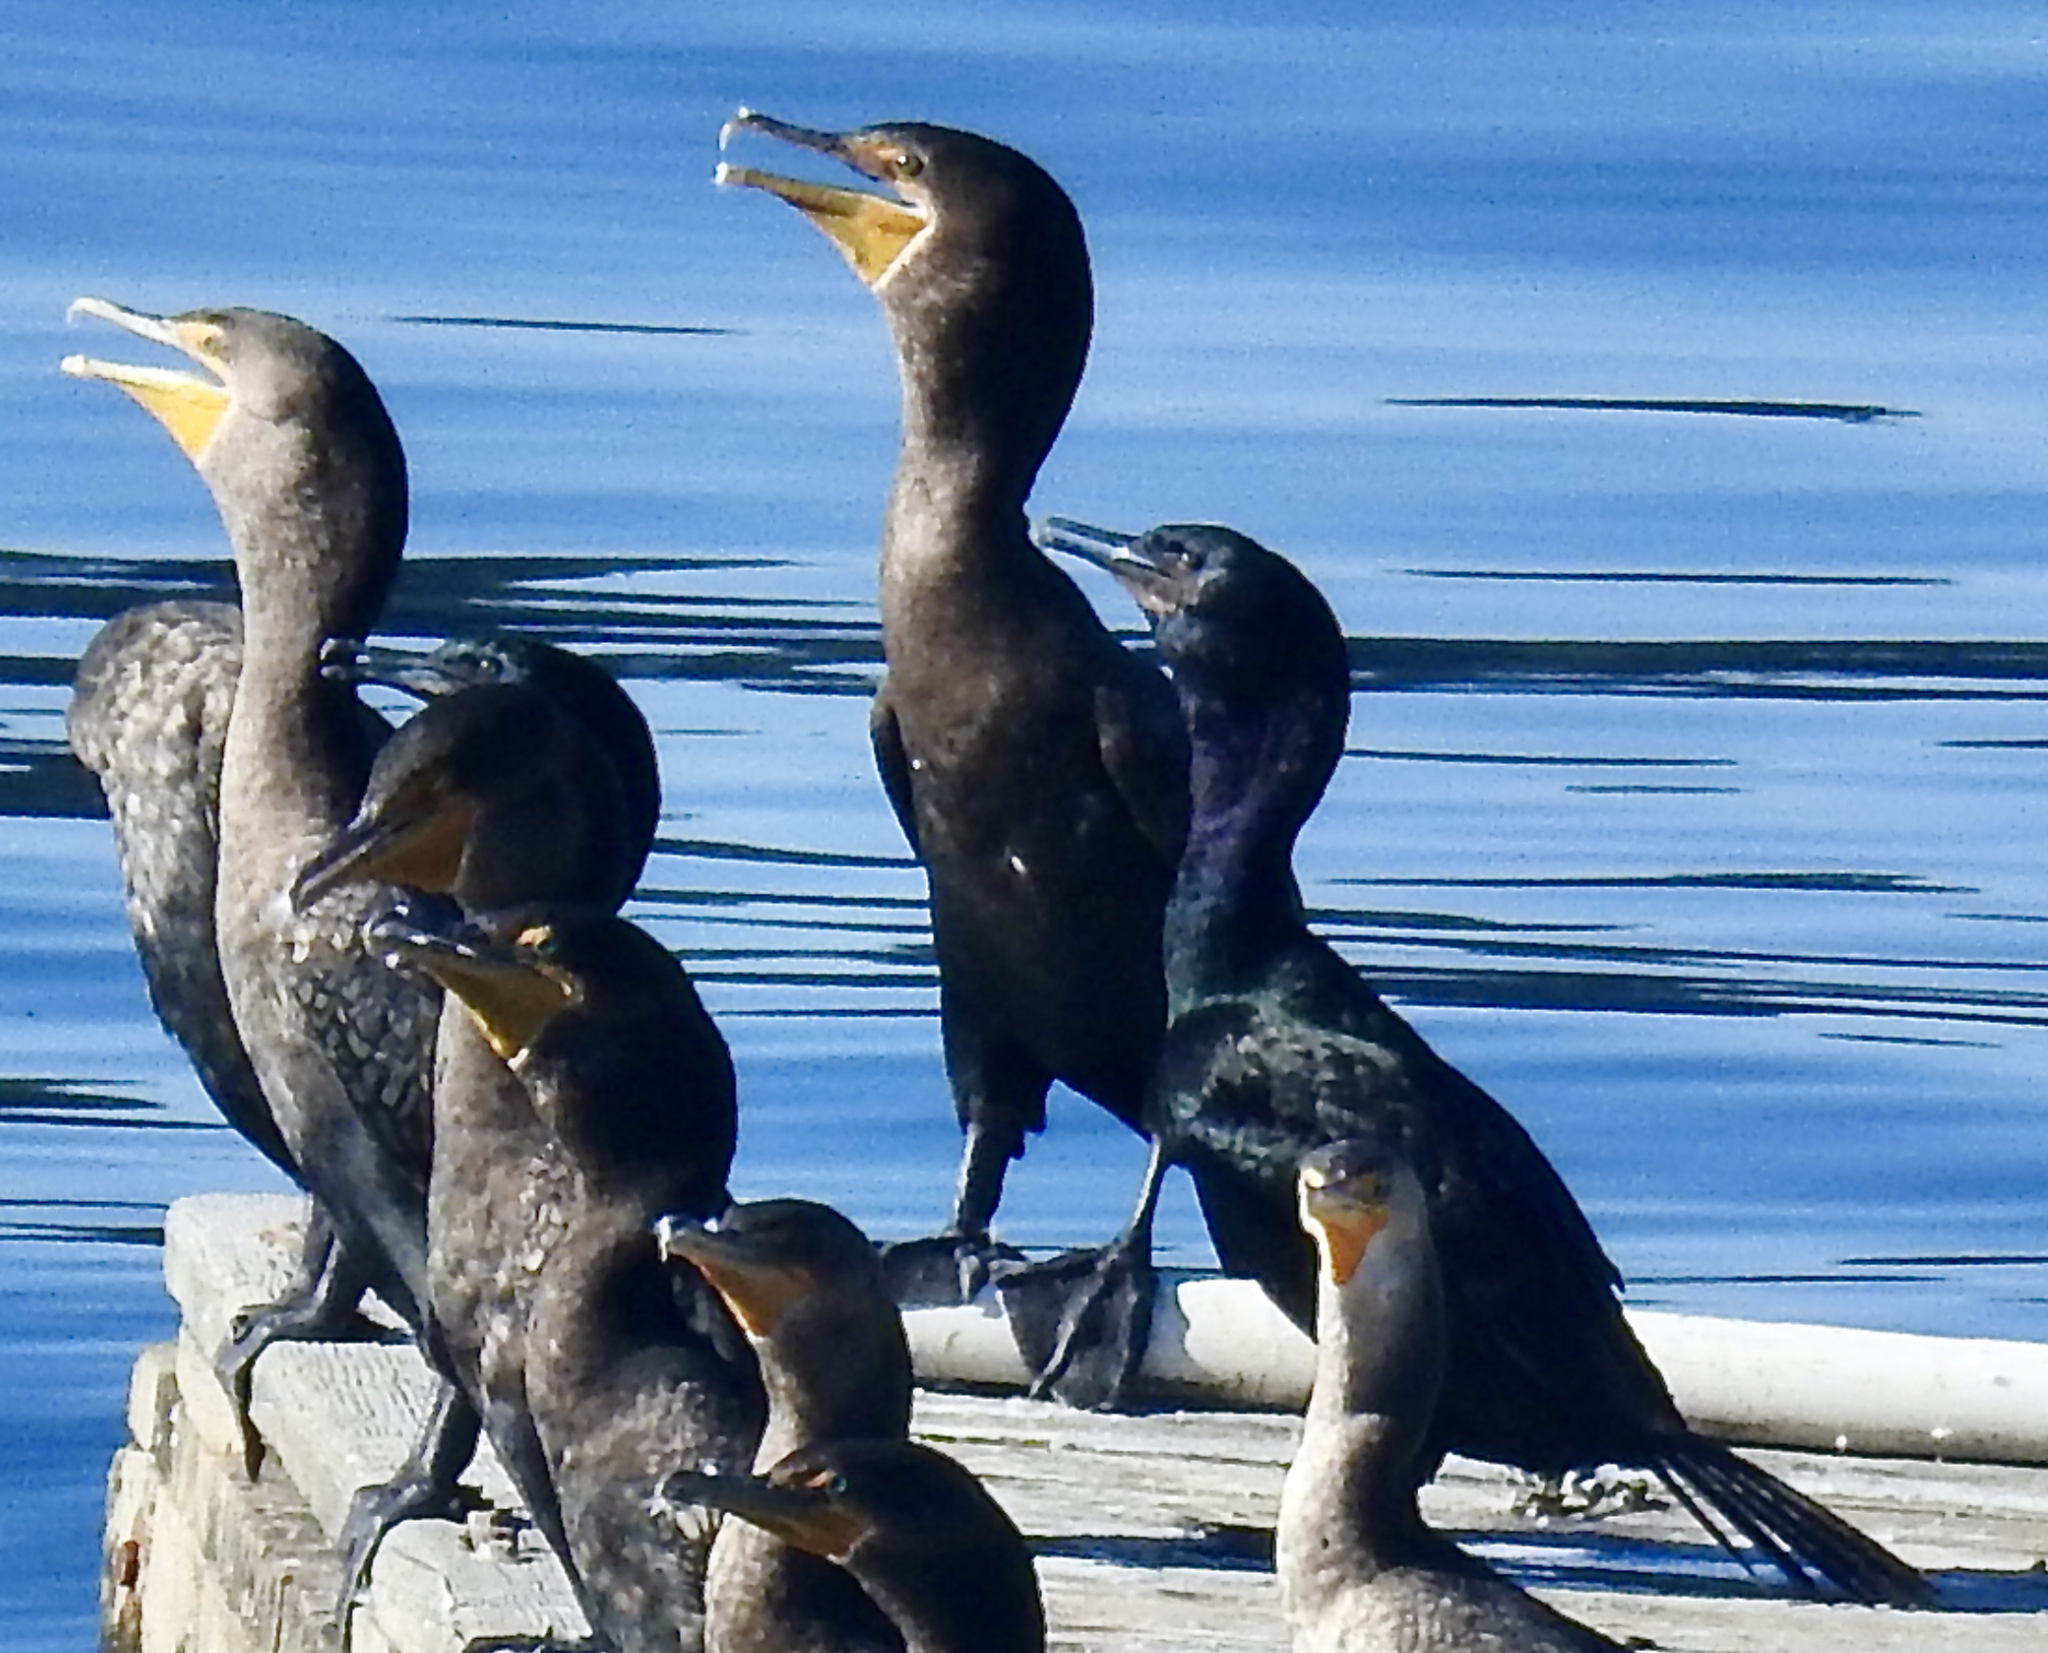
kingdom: Animalia
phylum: Chordata
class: Aves
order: Suliformes
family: Phalacrocoracidae
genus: Phalacrocorax
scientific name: Phalacrocorax pelagicus
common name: Pelagic cormorant
